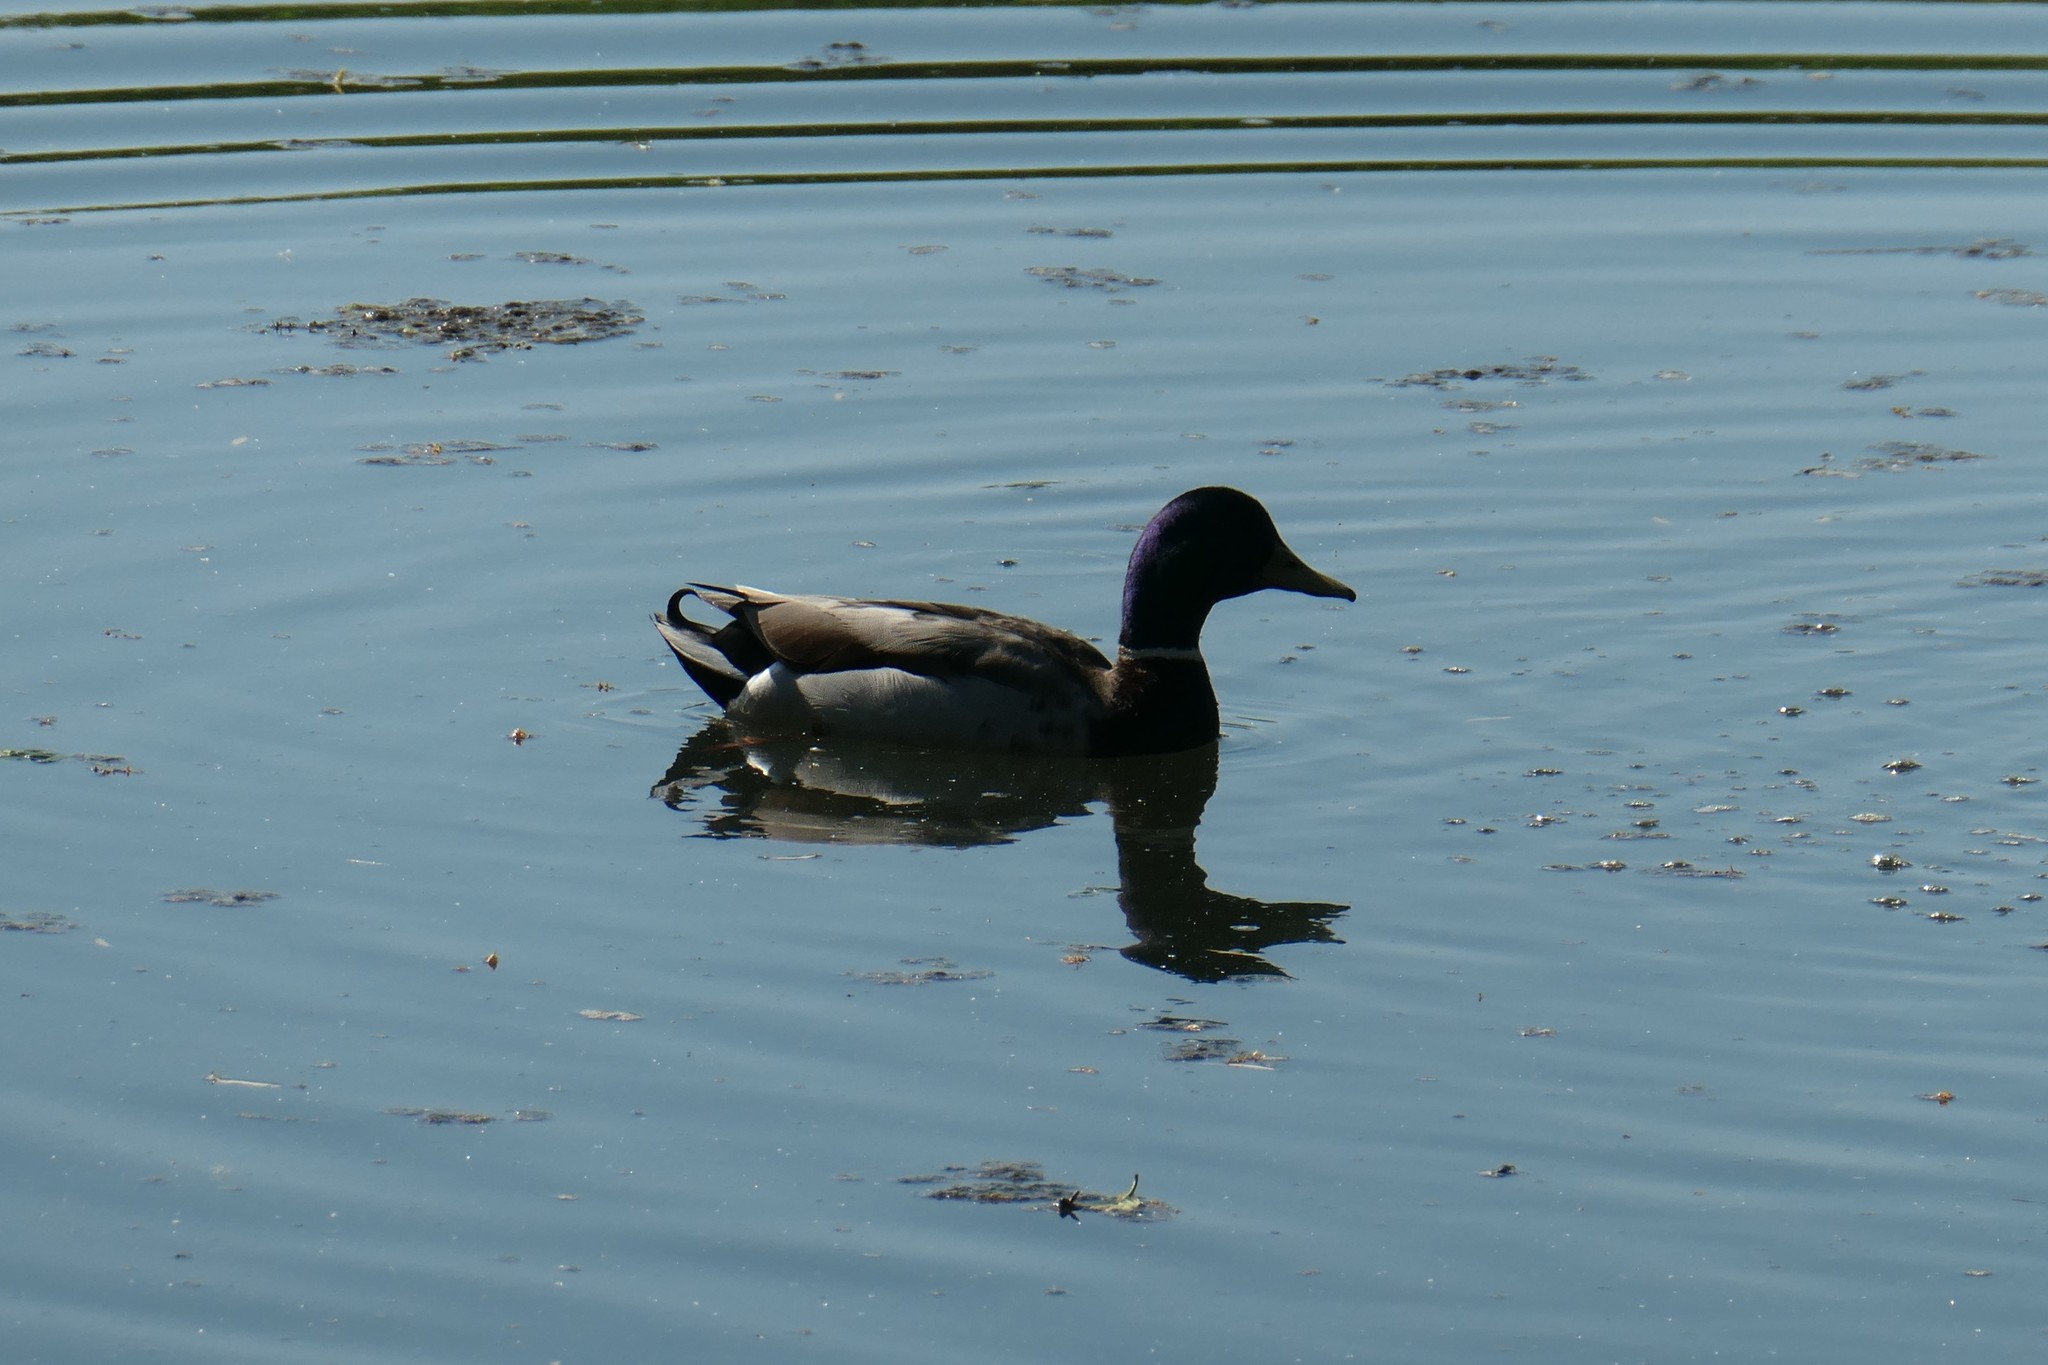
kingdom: Animalia
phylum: Chordata
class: Aves
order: Anseriformes
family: Anatidae
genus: Anas
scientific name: Anas platyrhynchos
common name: Mallard
